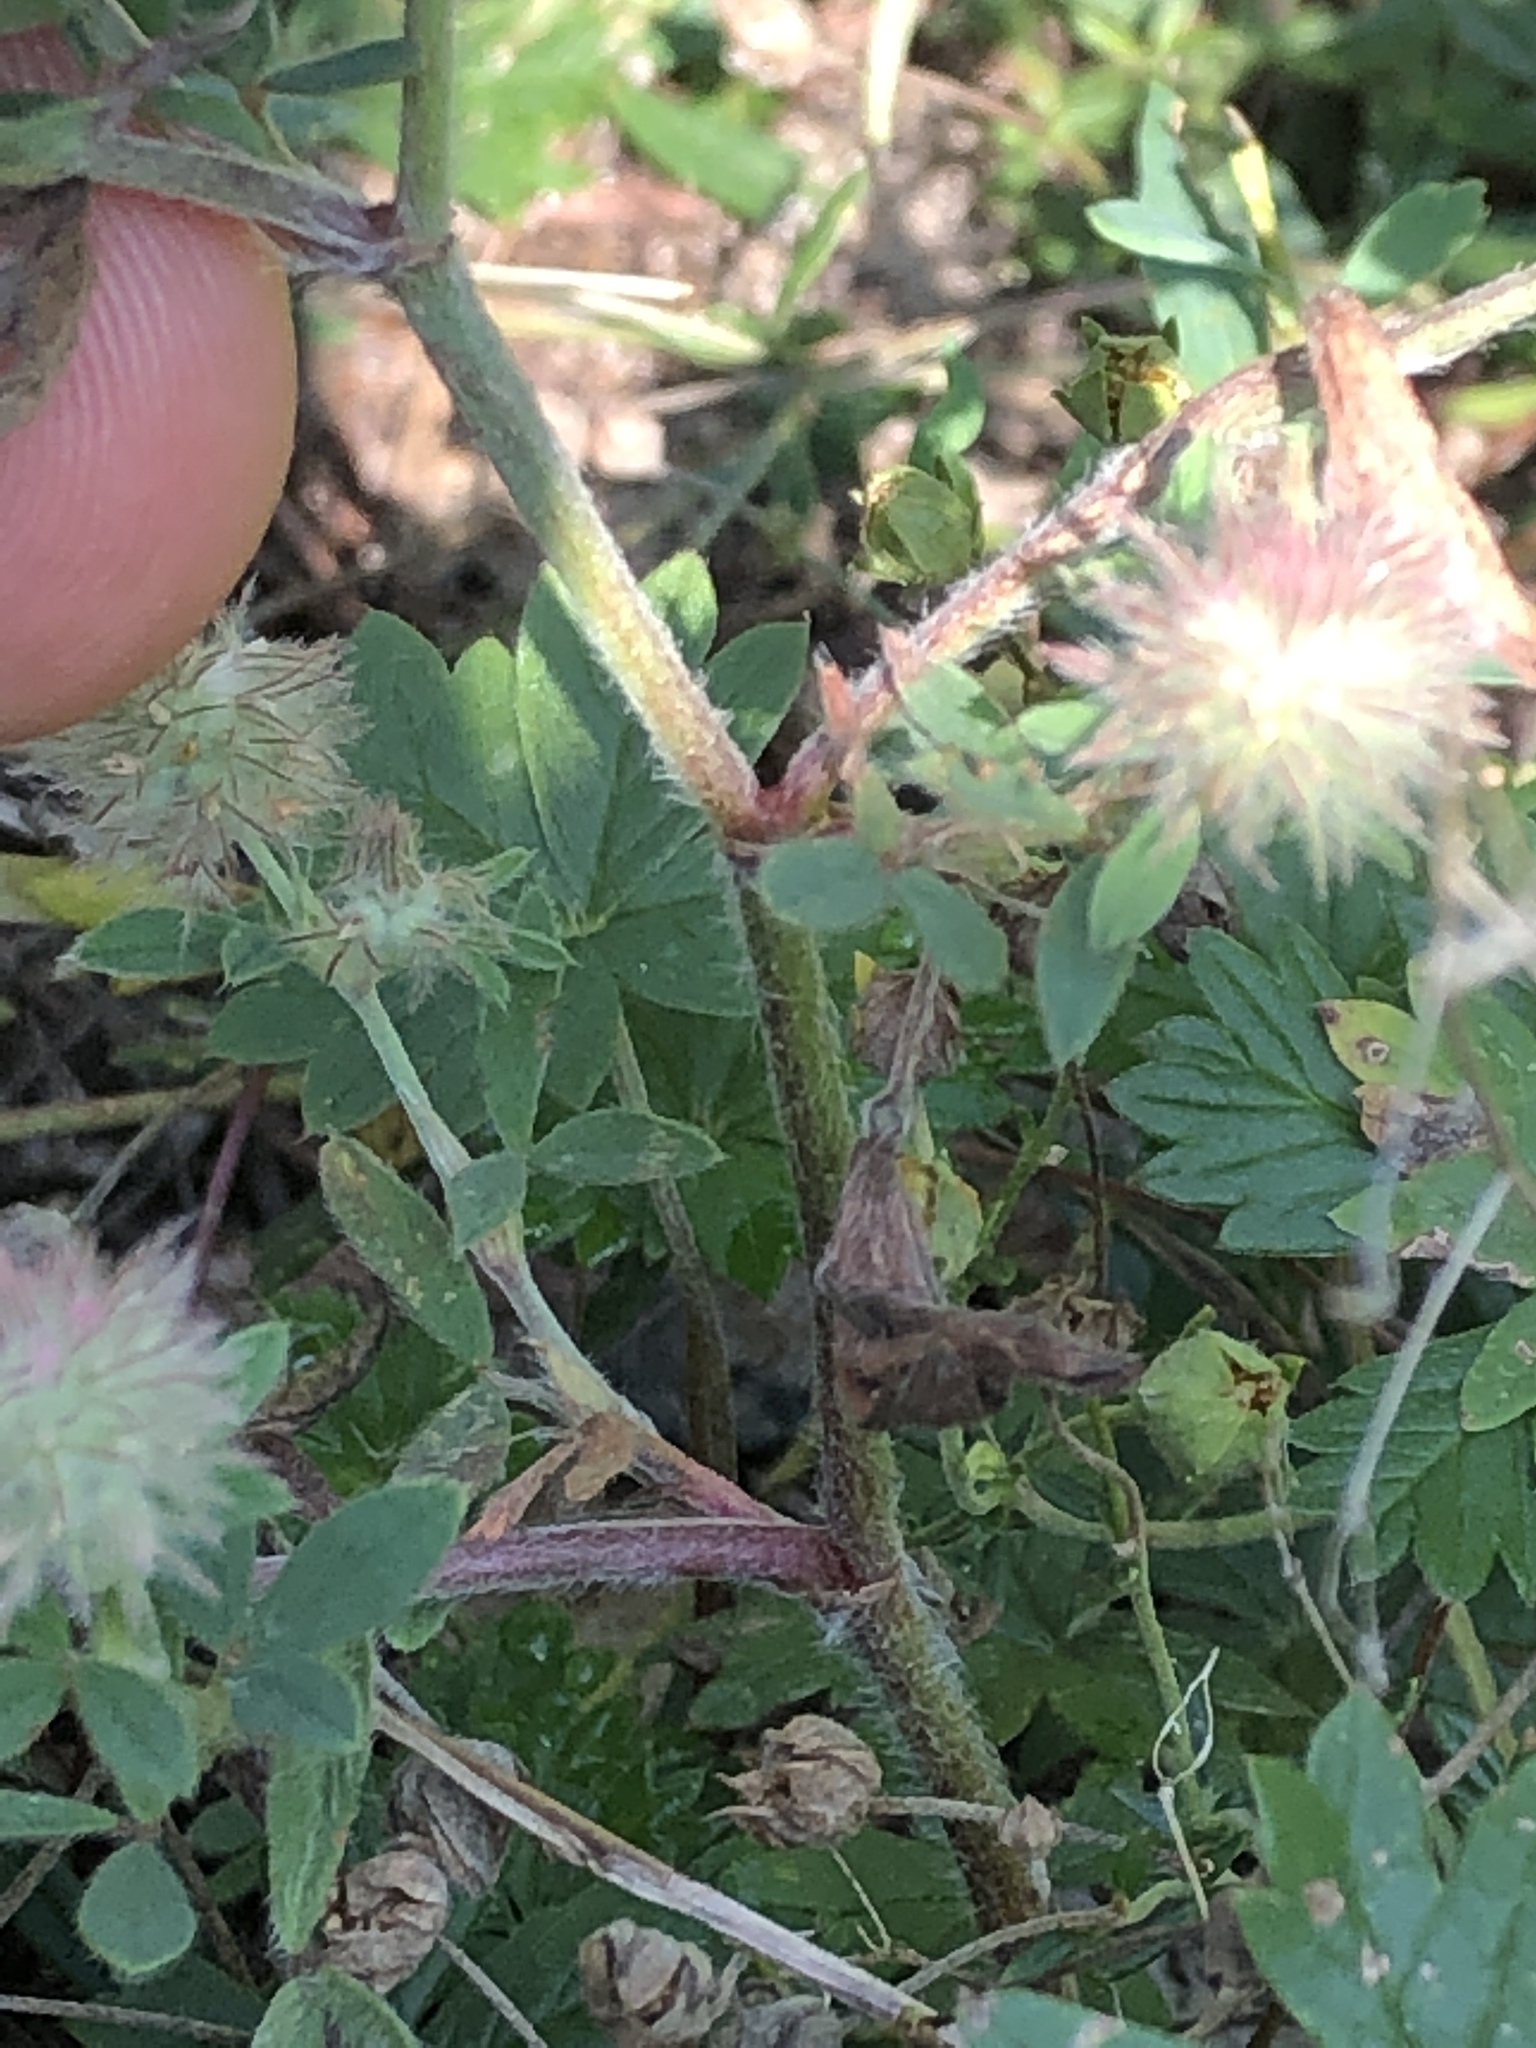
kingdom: Plantae
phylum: Tracheophyta
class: Magnoliopsida
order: Fabales
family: Fabaceae
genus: Trifolium
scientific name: Trifolium arvense
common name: Hare's-foot clover
